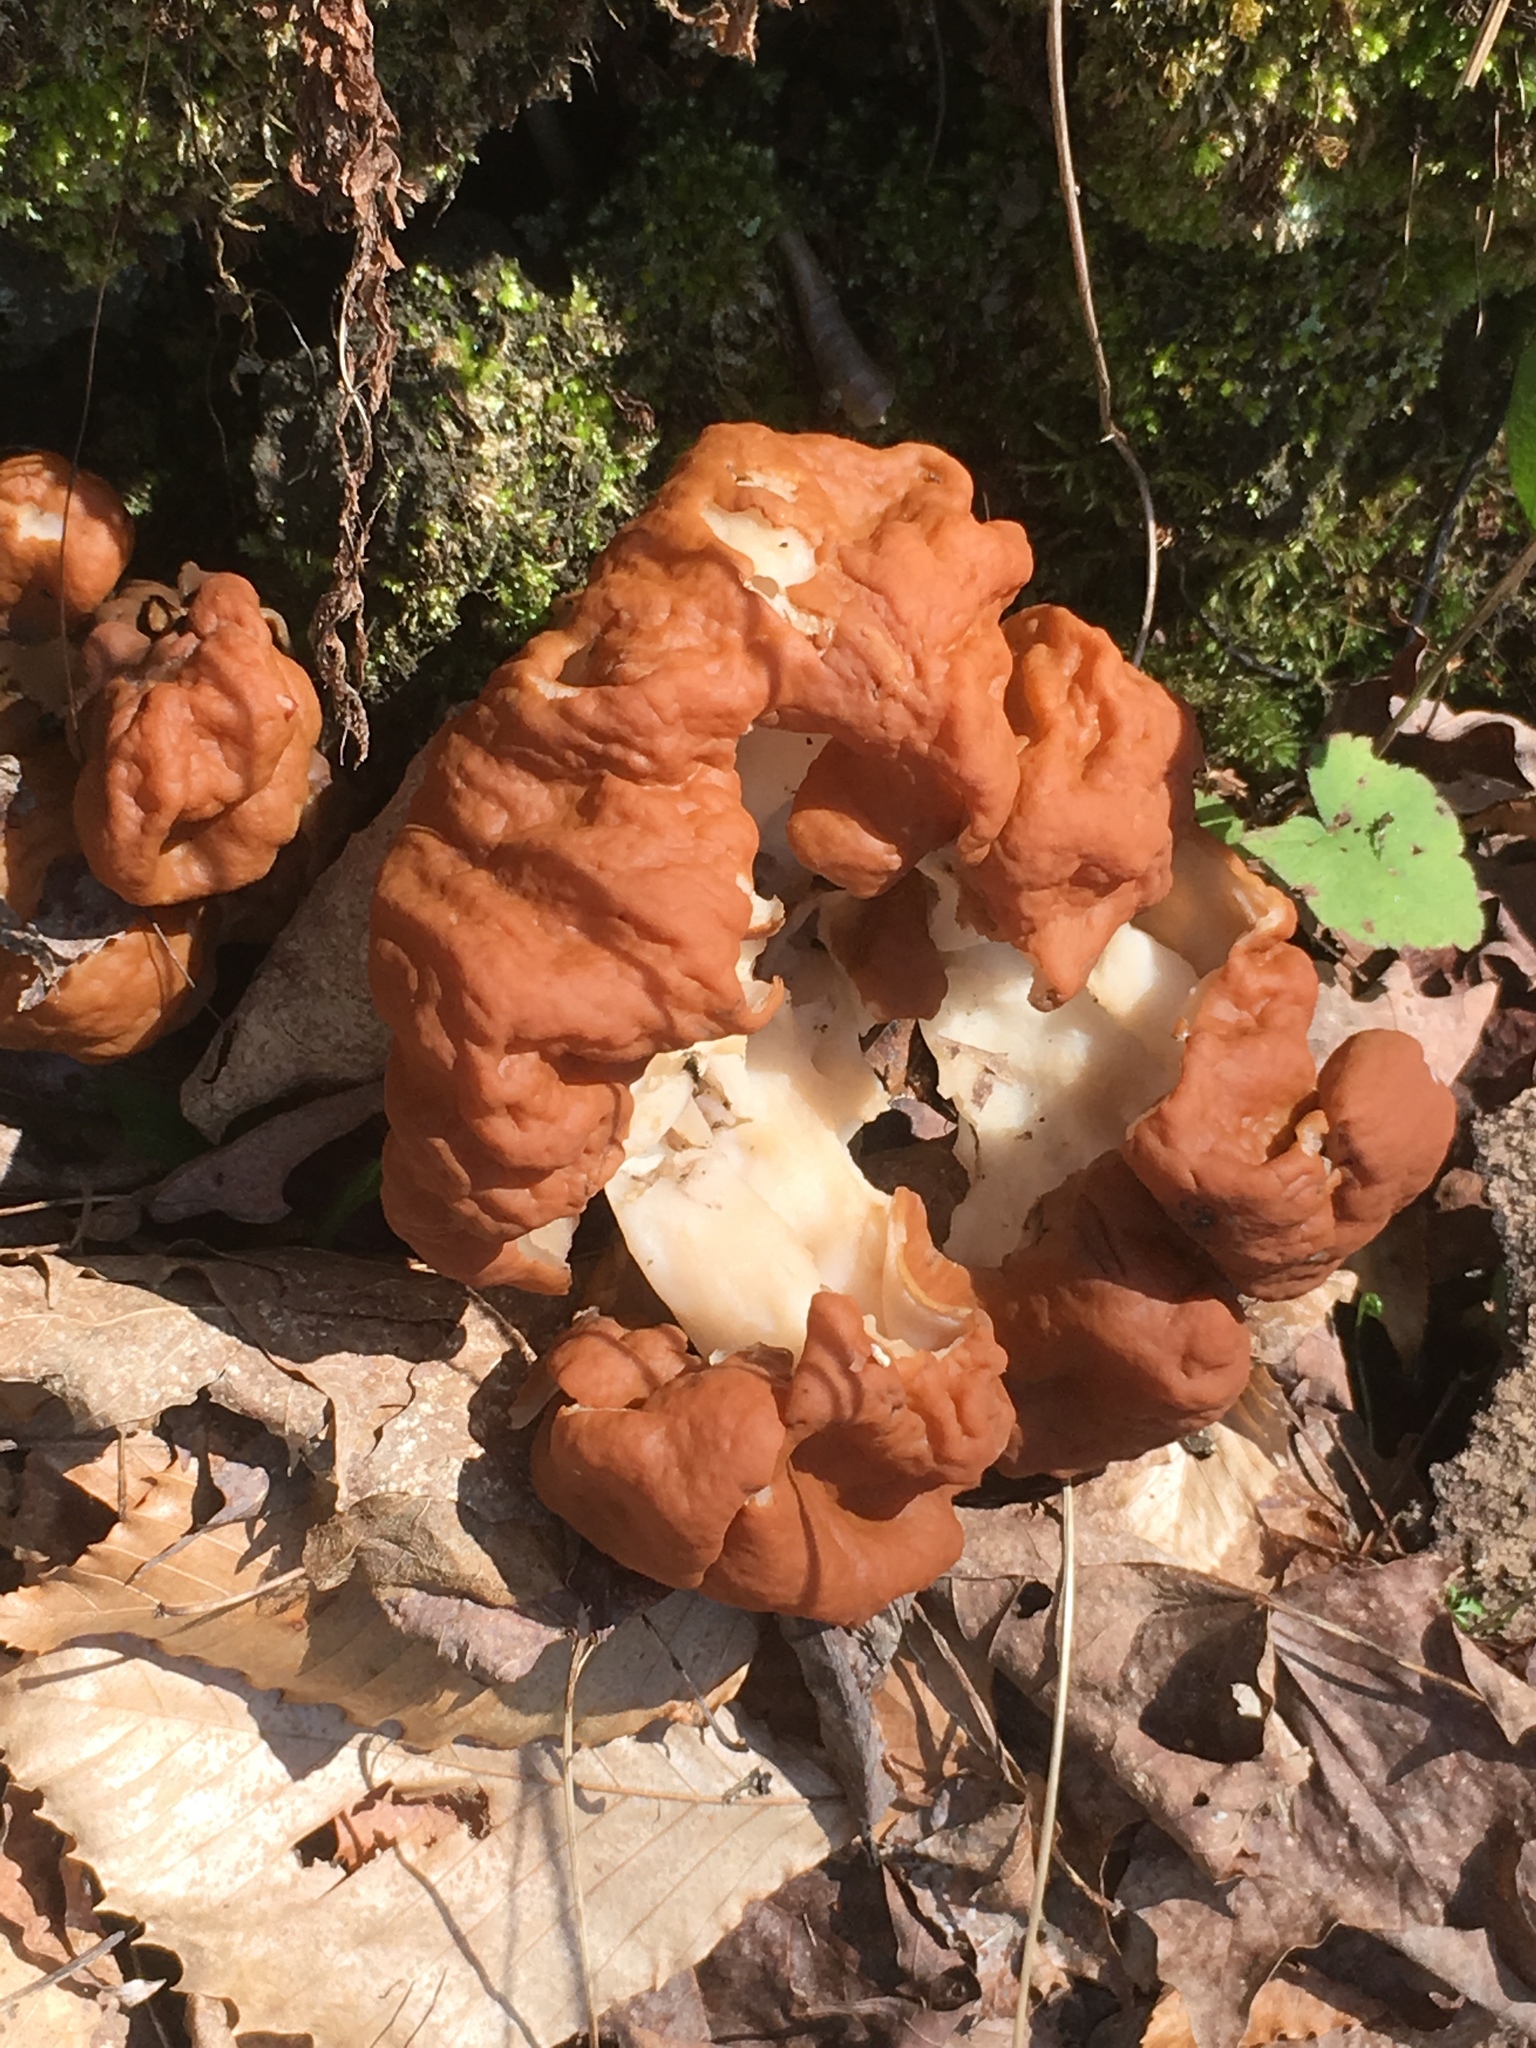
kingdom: Fungi
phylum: Ascomycota
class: Pezizomycetes
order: Pezizales
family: Discinaceae
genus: Gyromitra
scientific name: Gyromitra esculenta
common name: False morel
